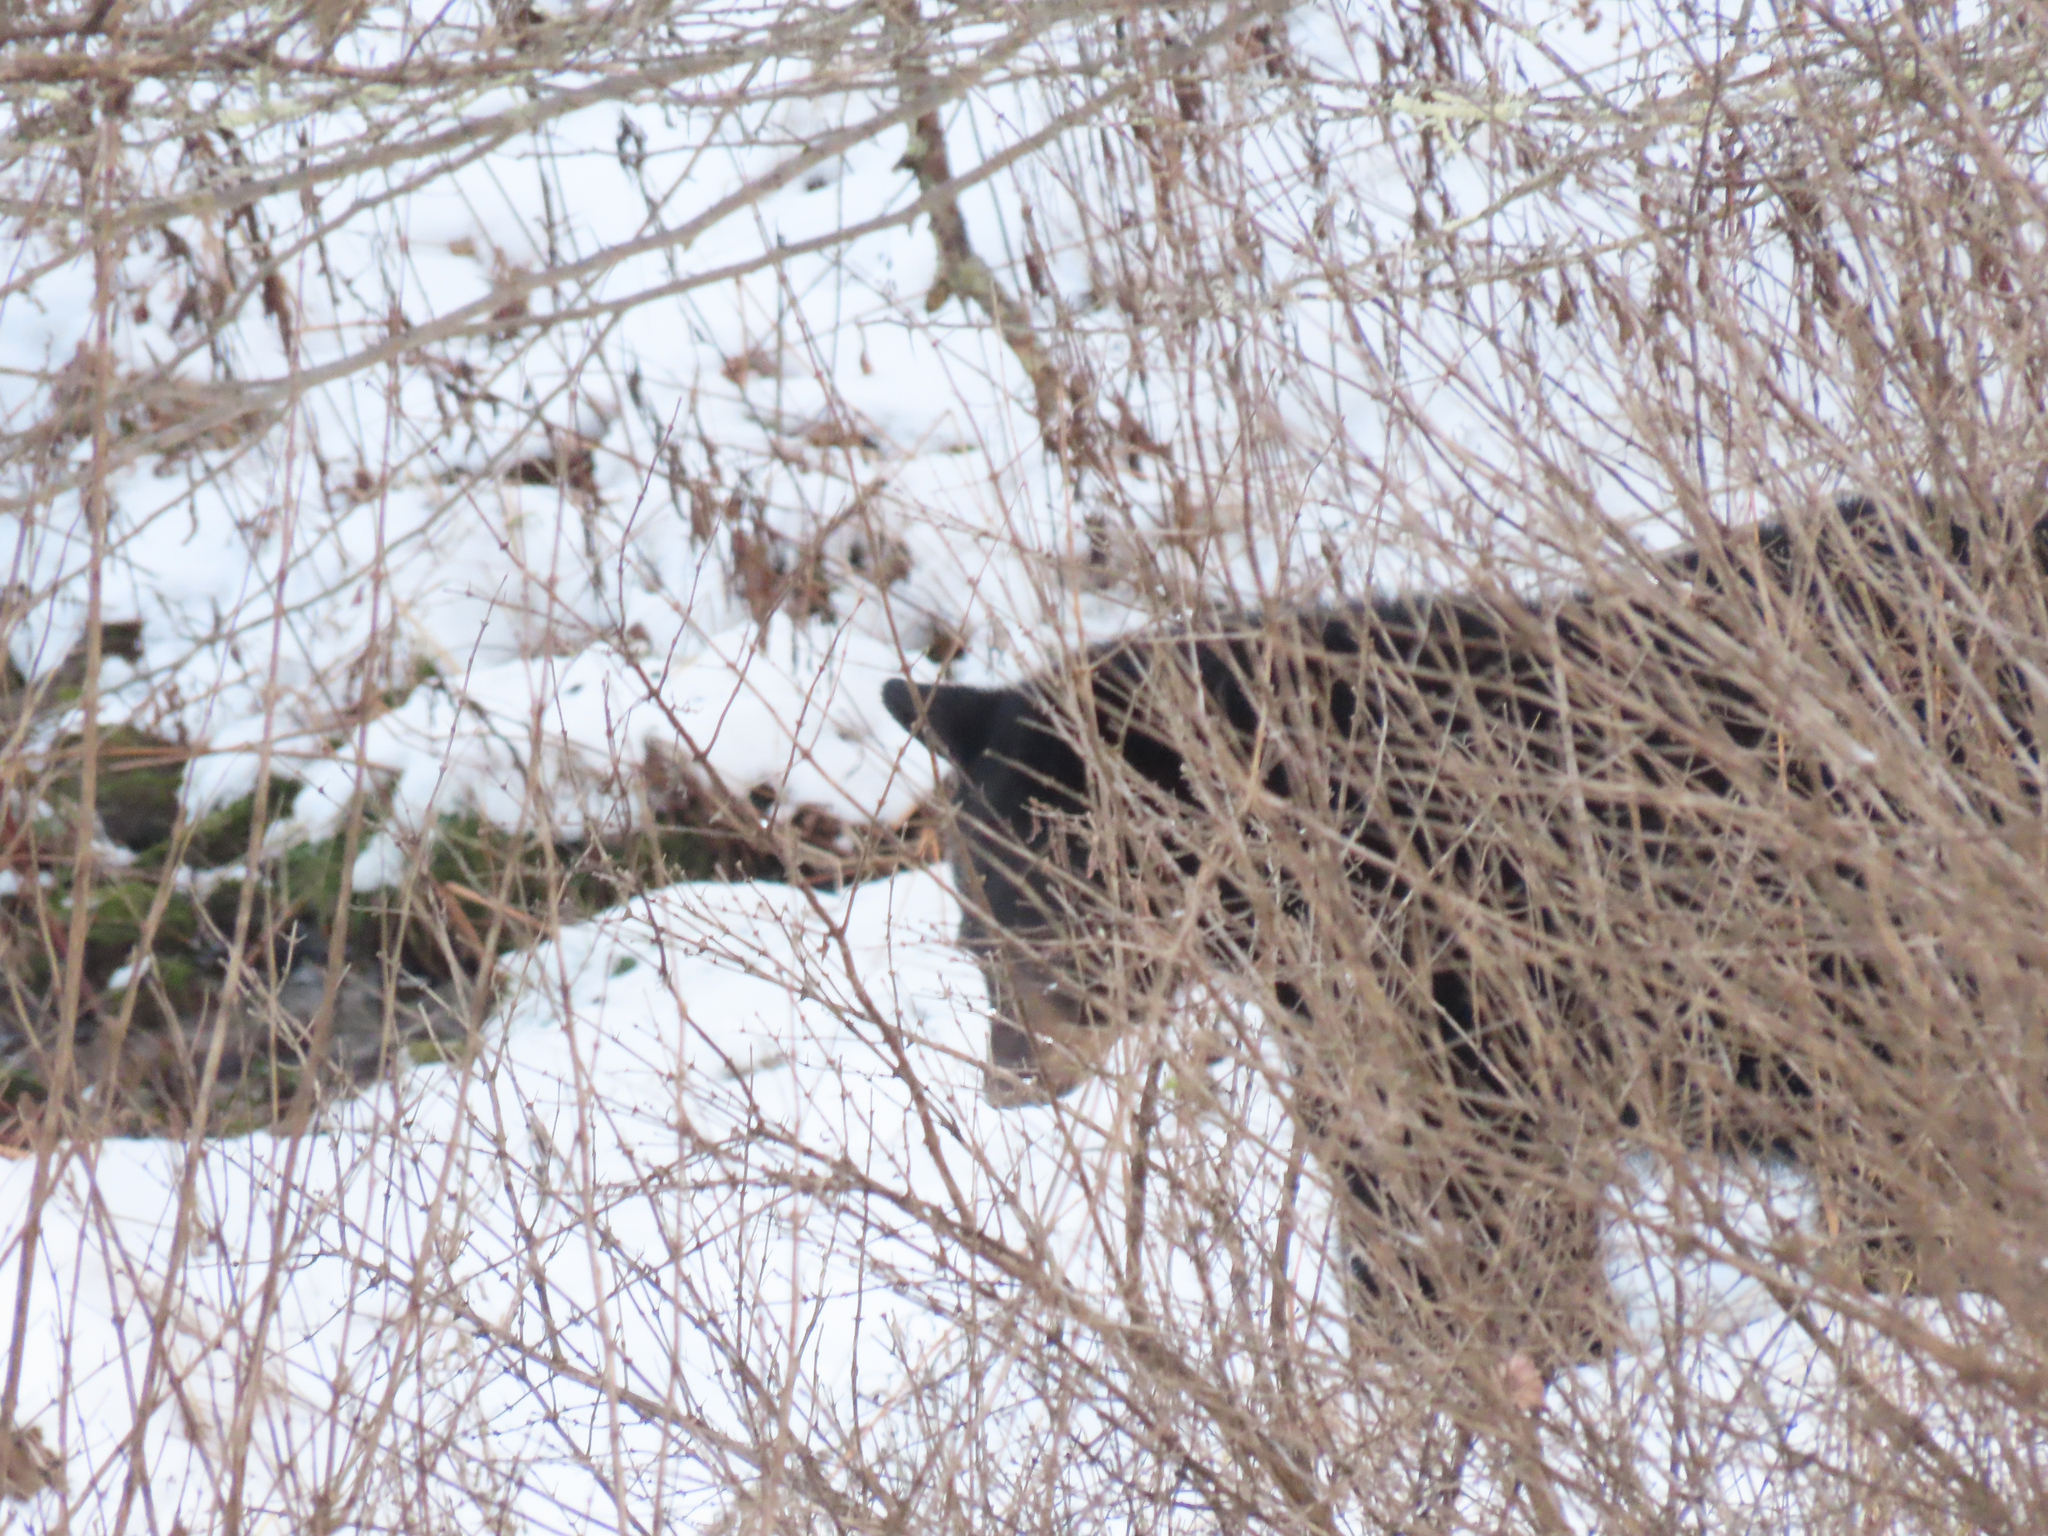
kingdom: Animalia
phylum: Chordata
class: Mammalia
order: Carnivora
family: Ursidae
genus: Ursus
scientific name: Ursus americanus
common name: American black bear
